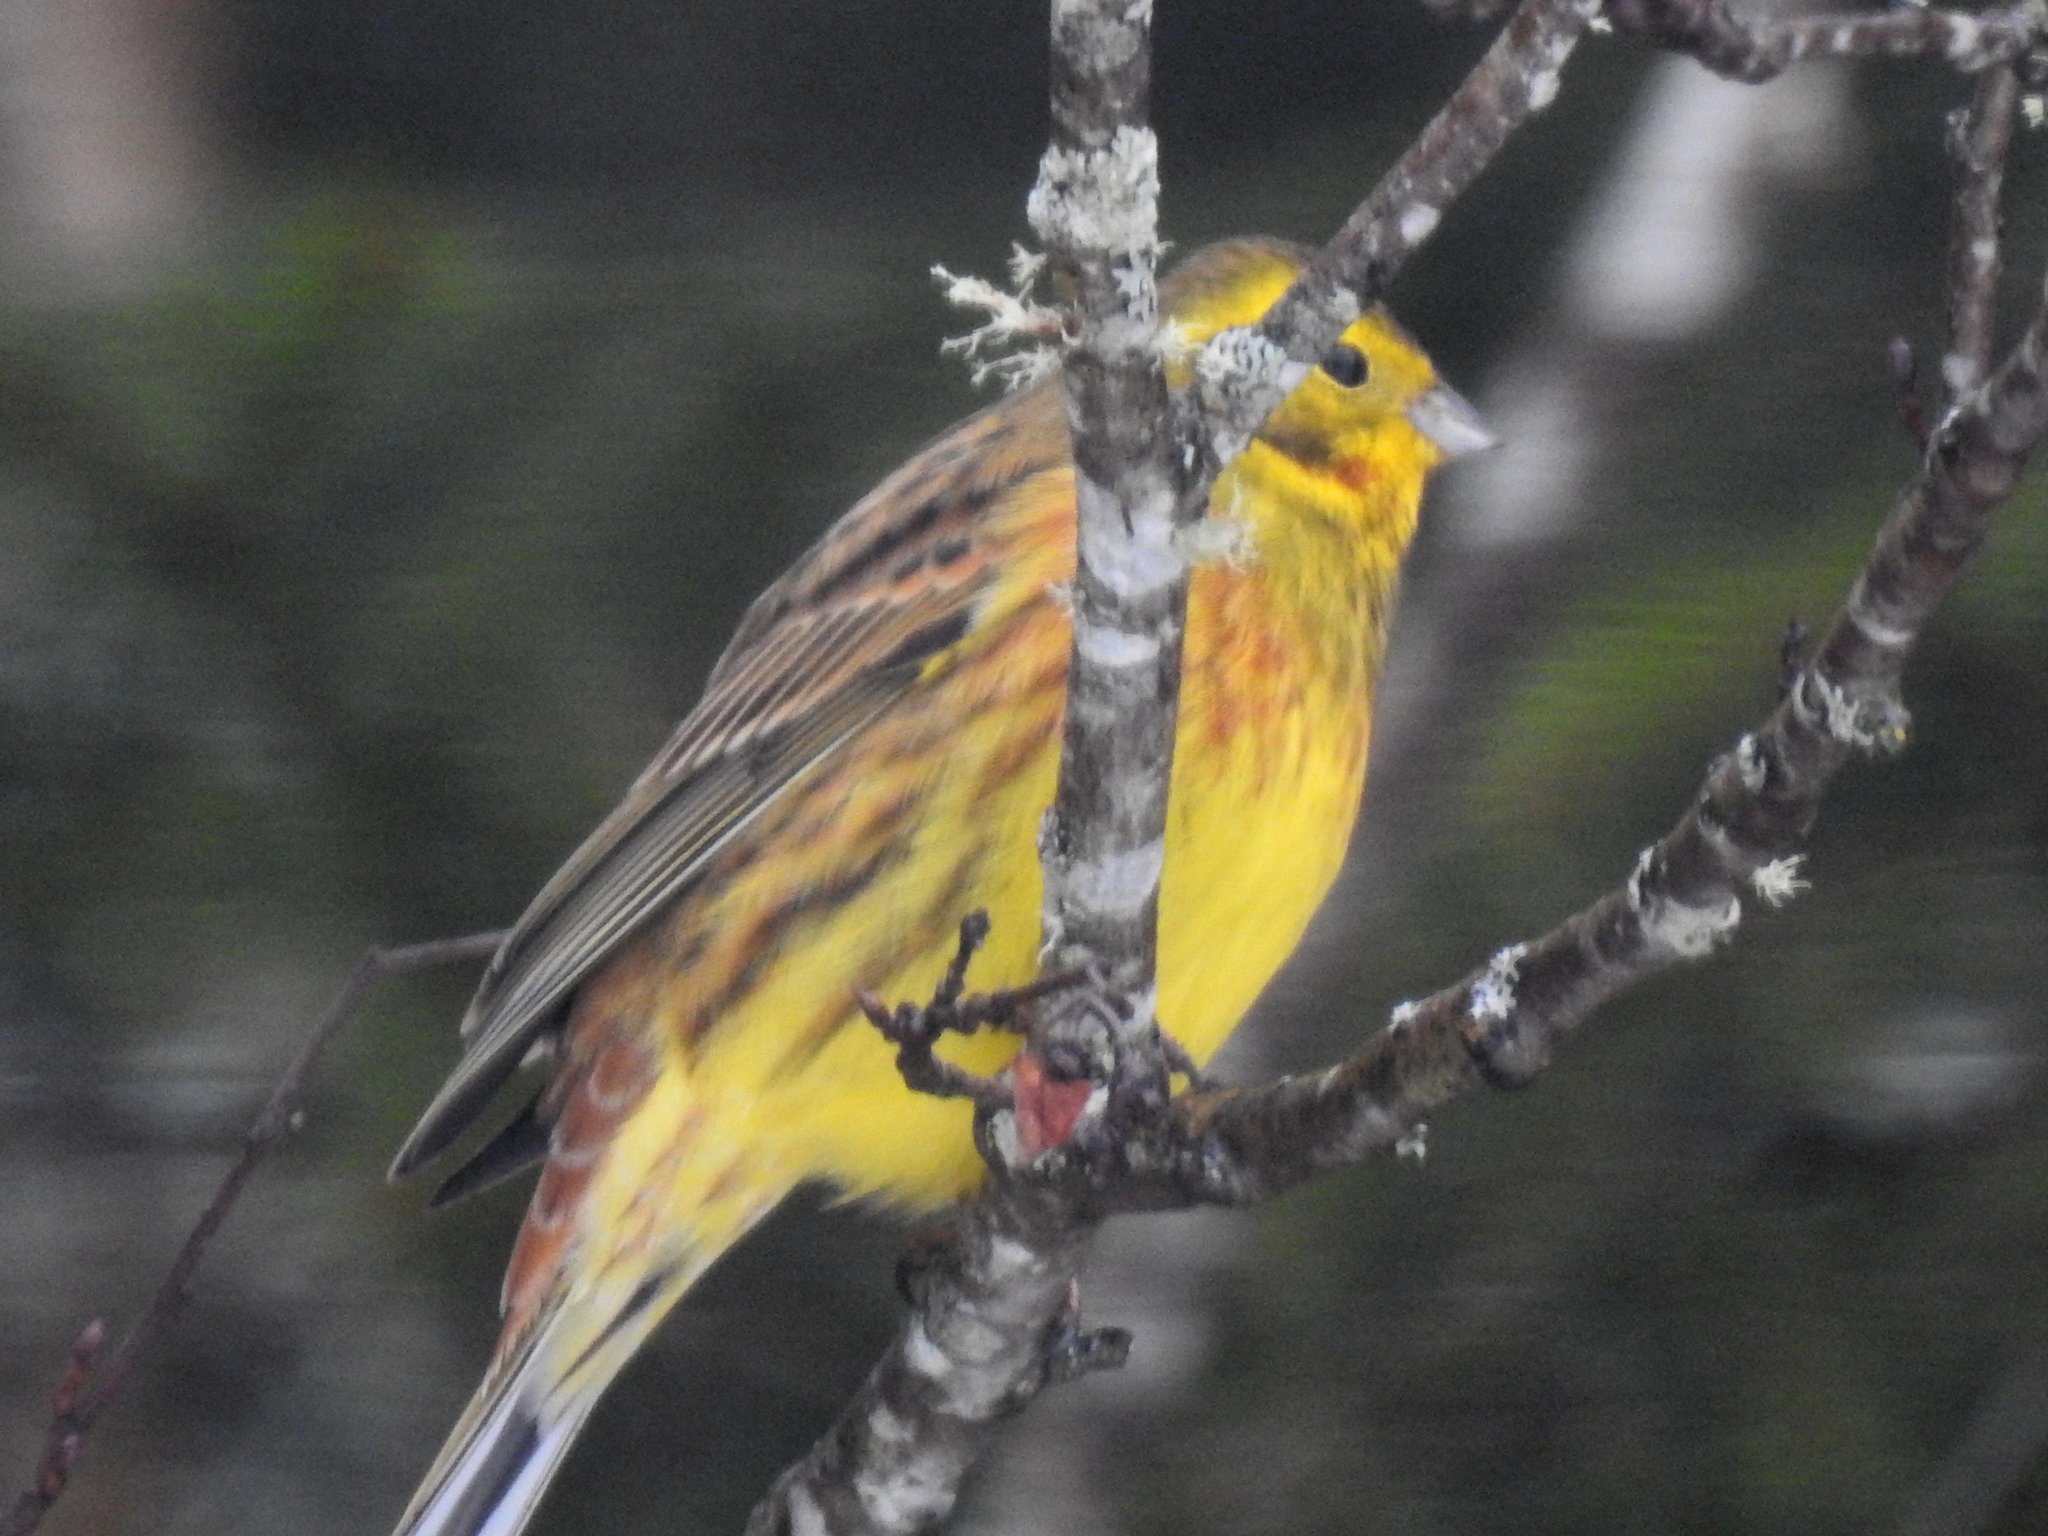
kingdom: Animalia
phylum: Chordata
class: Aves
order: Passeriformes
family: Emberizidae
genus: Emberiza
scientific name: Emberiza citrinella
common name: Yellowhammer
